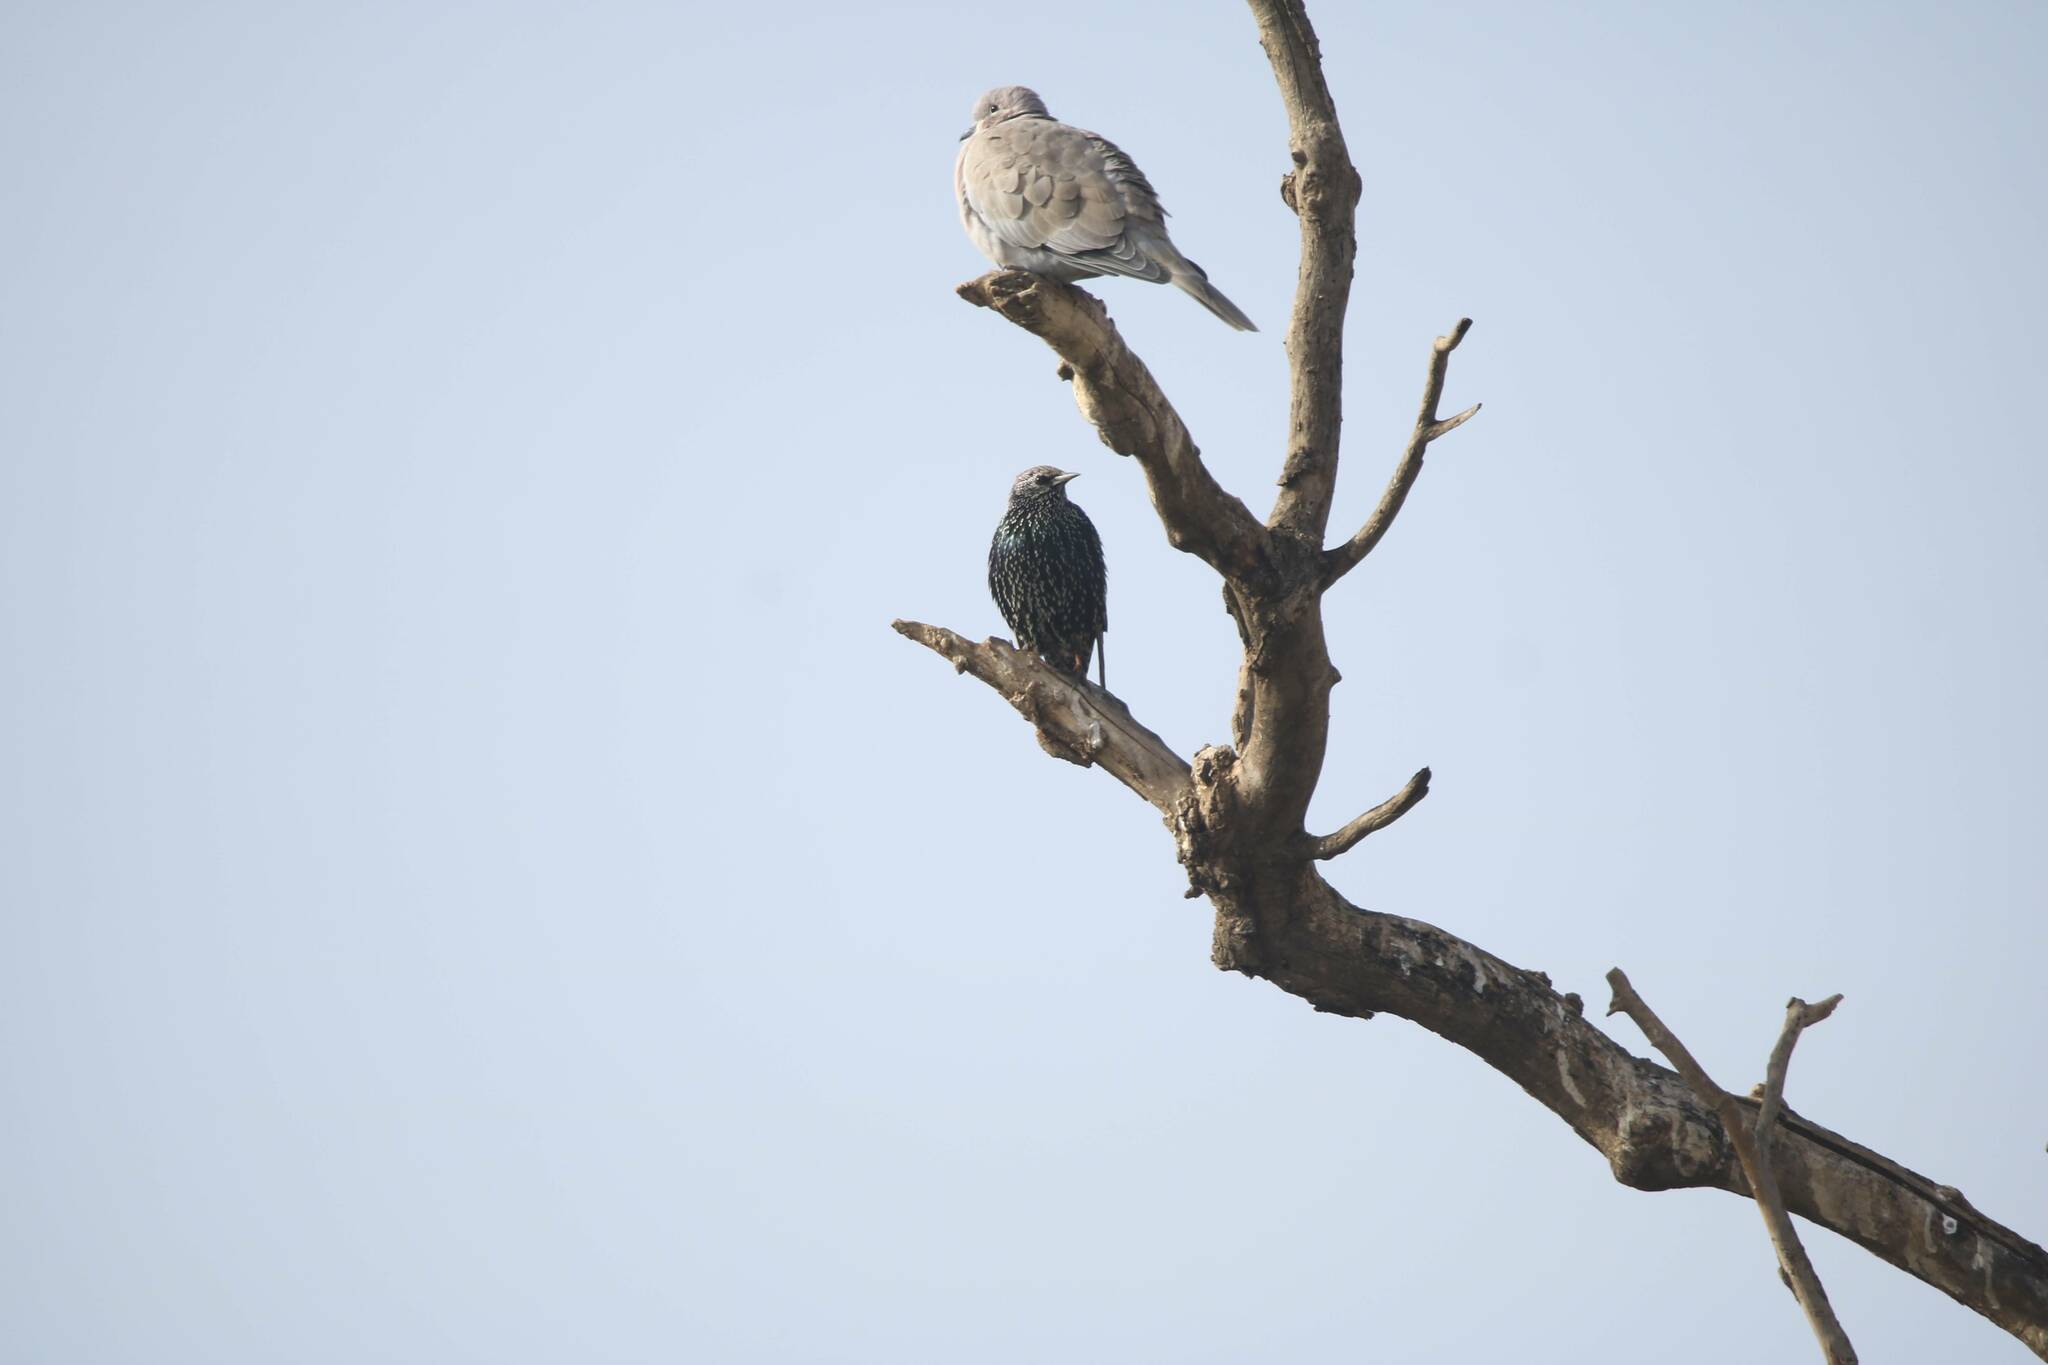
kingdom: Animalia
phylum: Chordata
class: Aves
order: Columbiformes
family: Columbidae
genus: Streptopelia
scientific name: Streptopelia decaocto
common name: Eurasian collared dove
